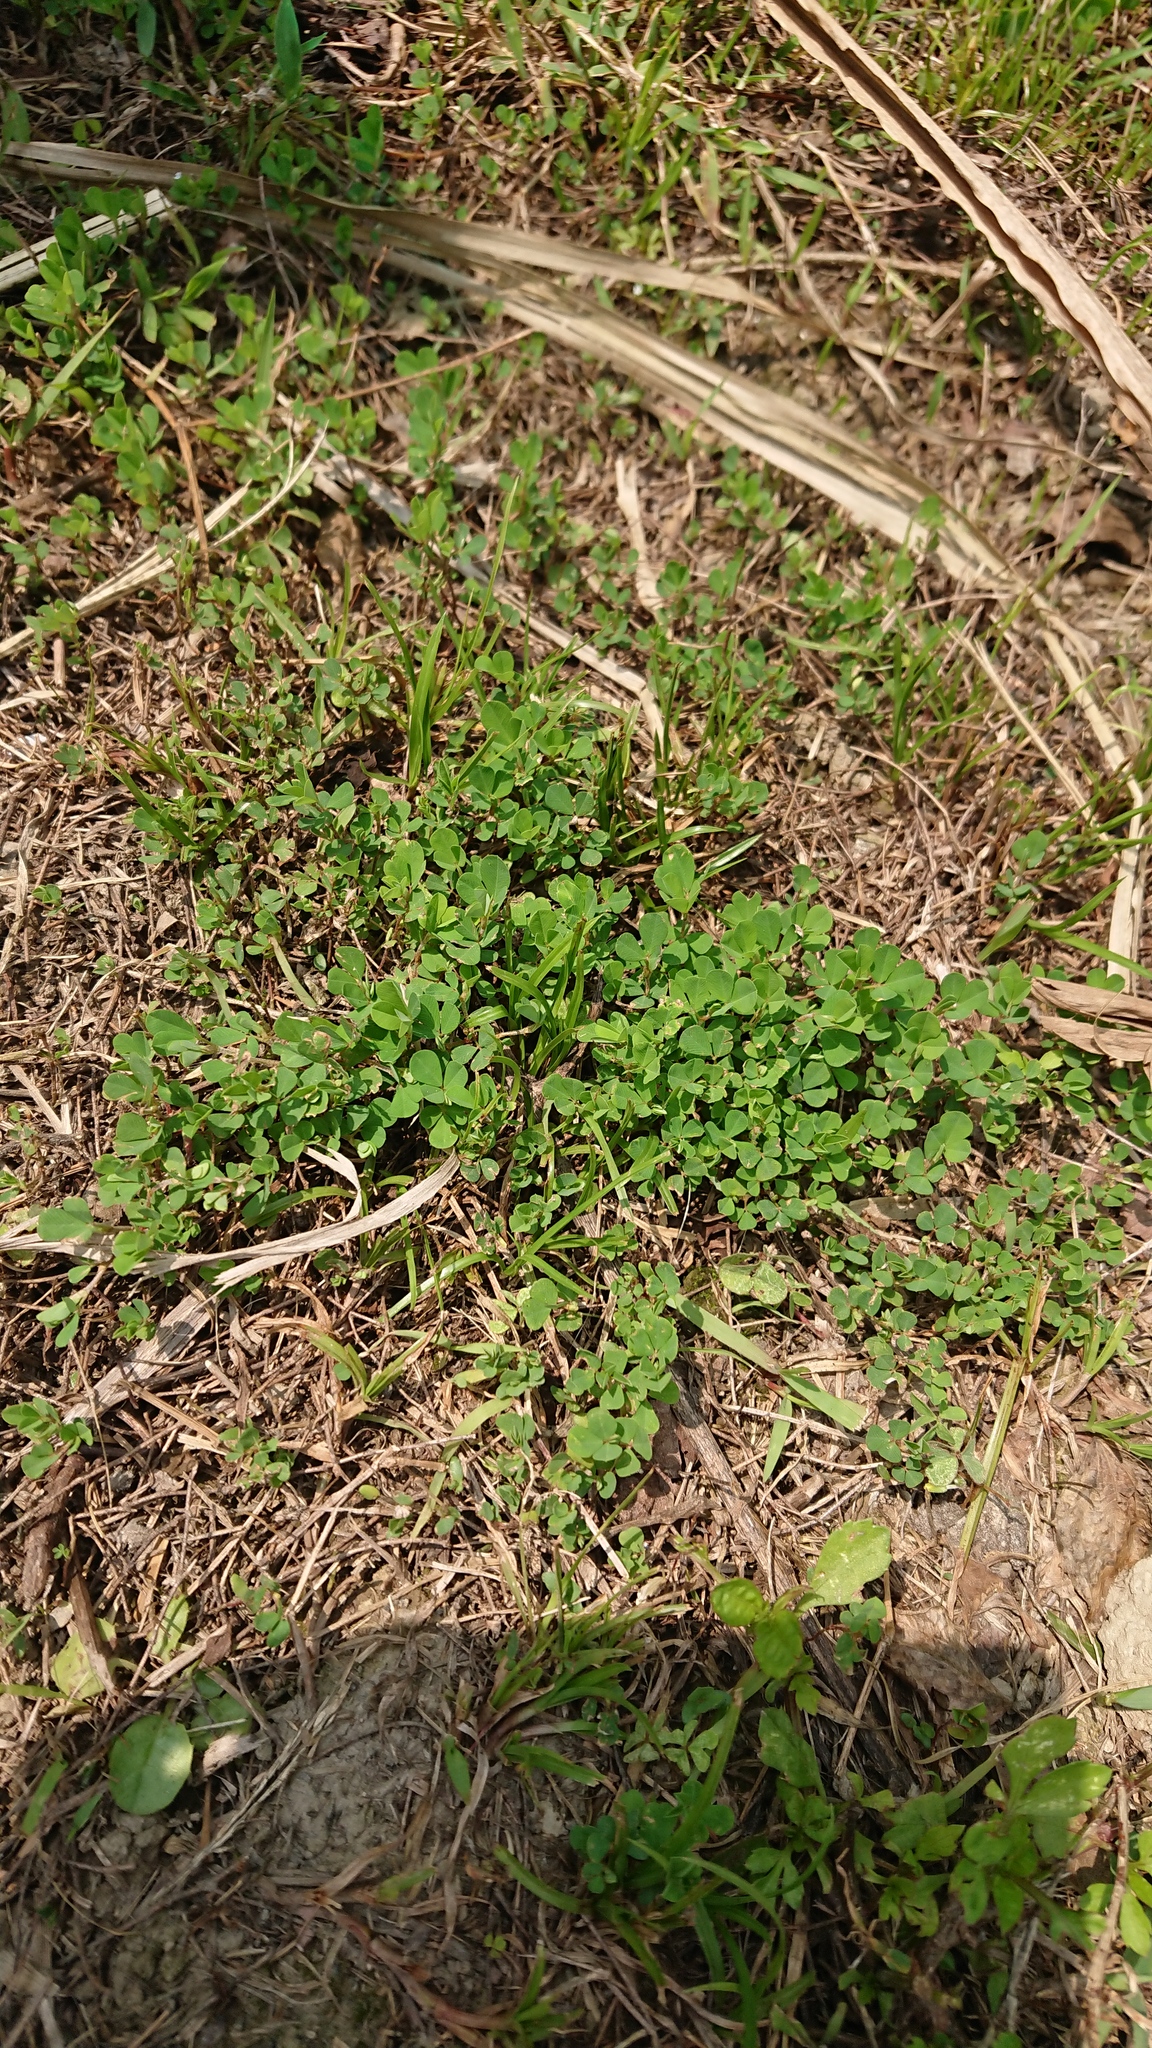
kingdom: Plantae
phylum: Tracheophyta
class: Magnoliopsida
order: Fabales
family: Fabaceae
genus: Trifolium
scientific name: Trifolium repens
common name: White clover
